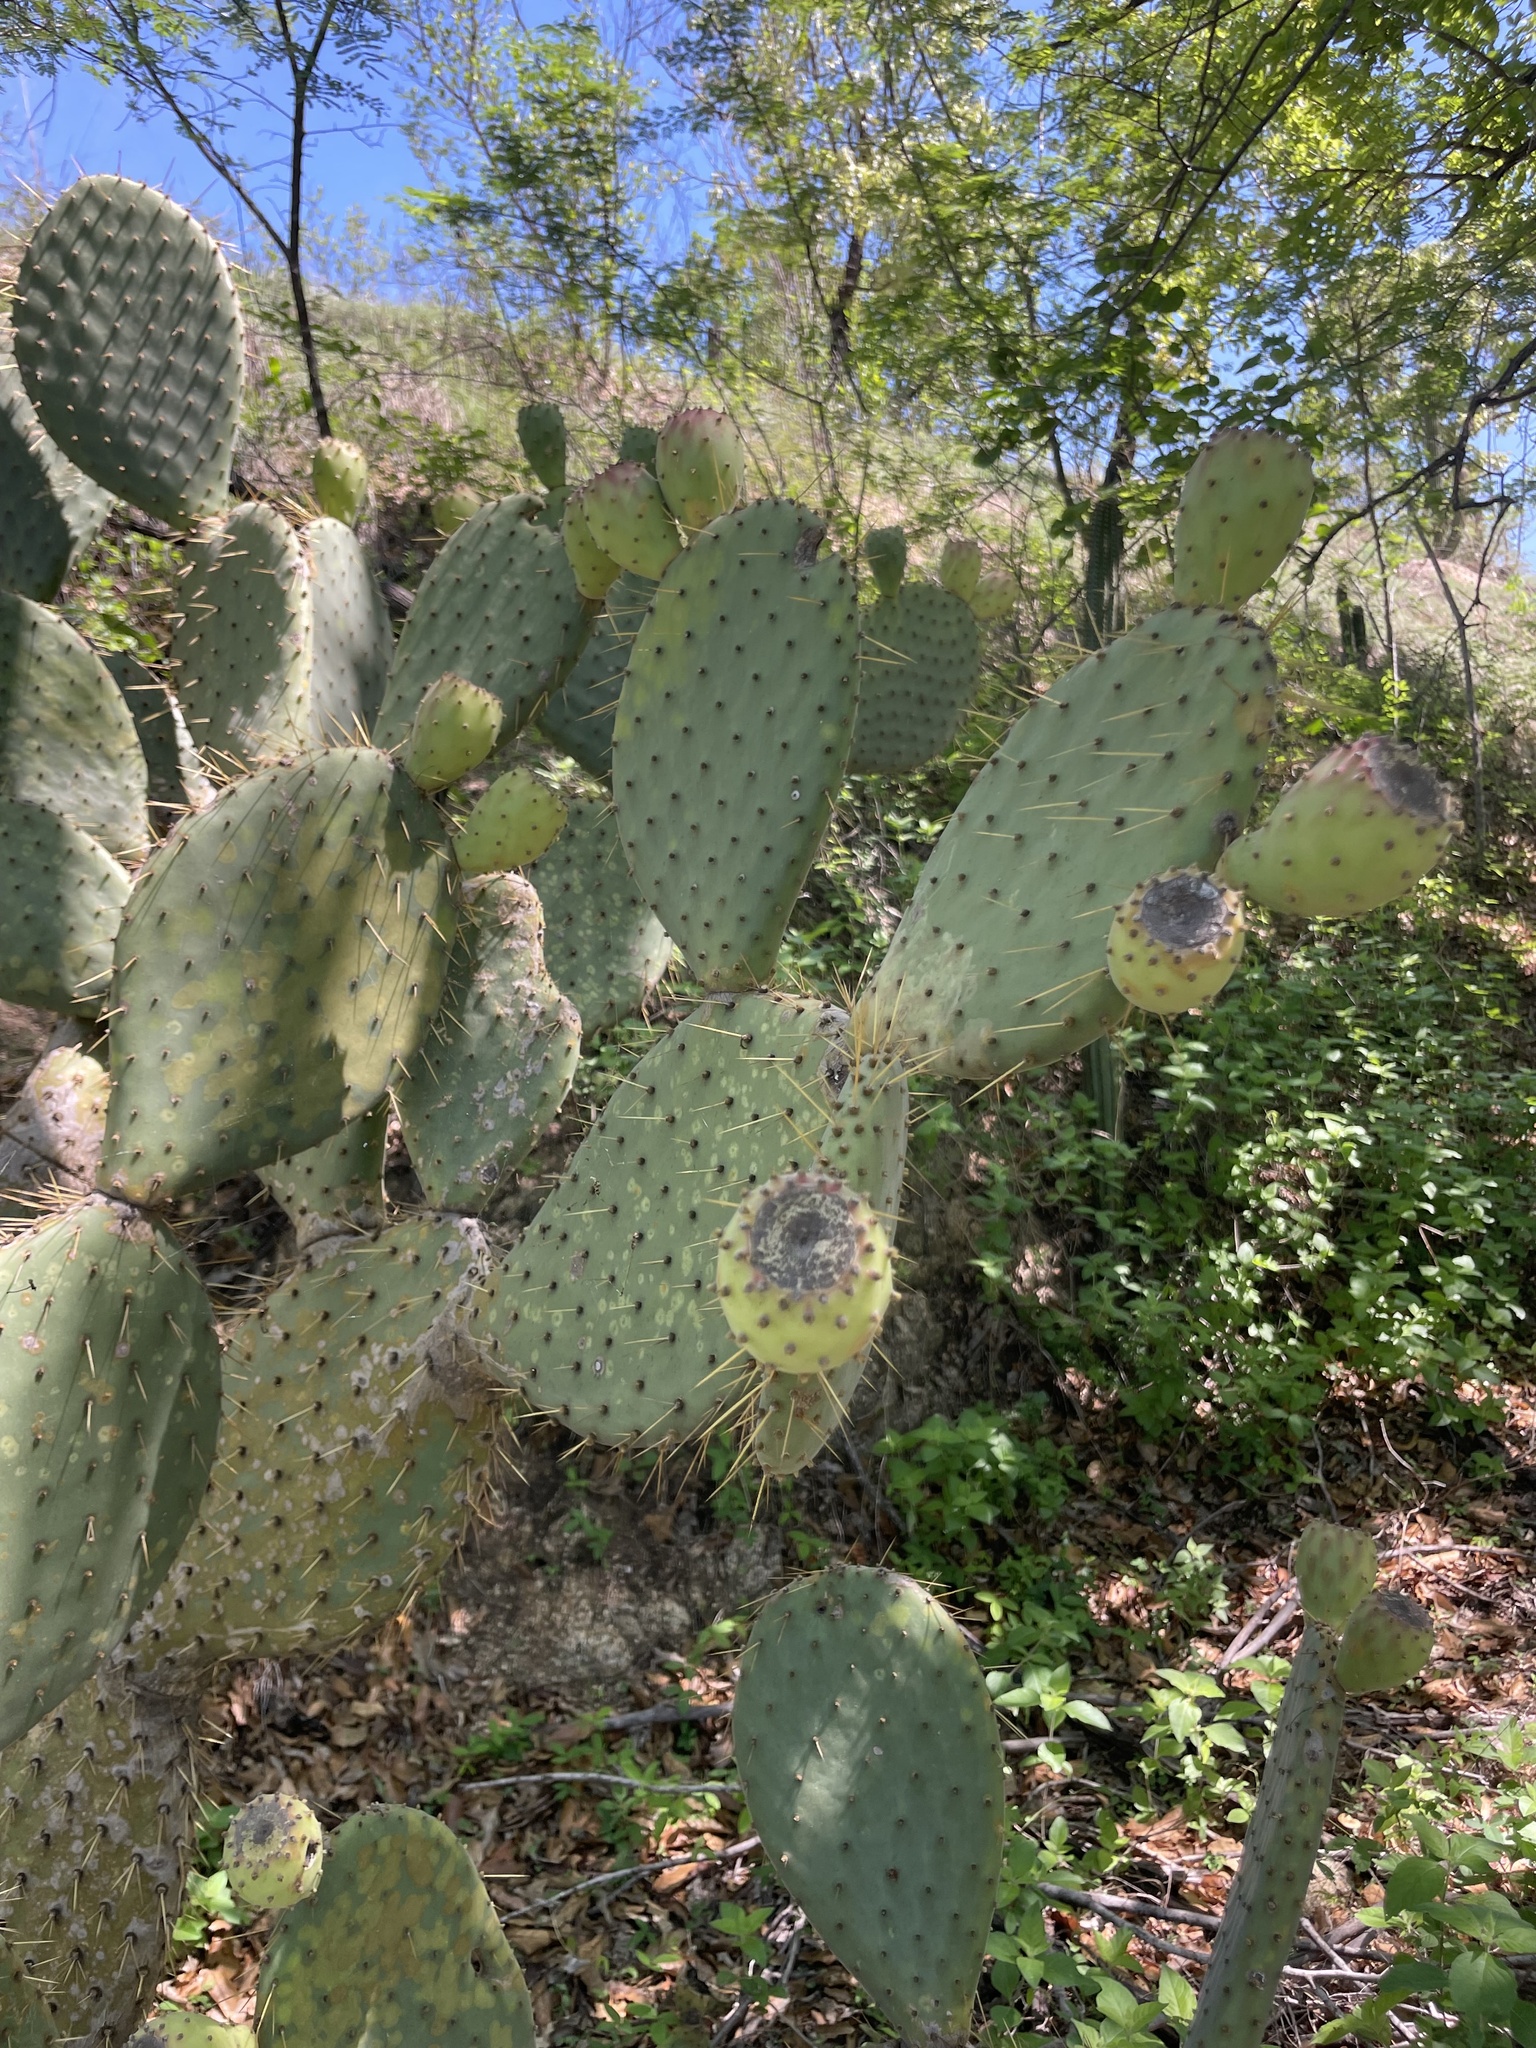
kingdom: Plantae
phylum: Tracheophyta
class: Magnoliopsida
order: Caryophyllales
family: Cactaceae
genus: Opuntia
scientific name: Opuntia caboensis
